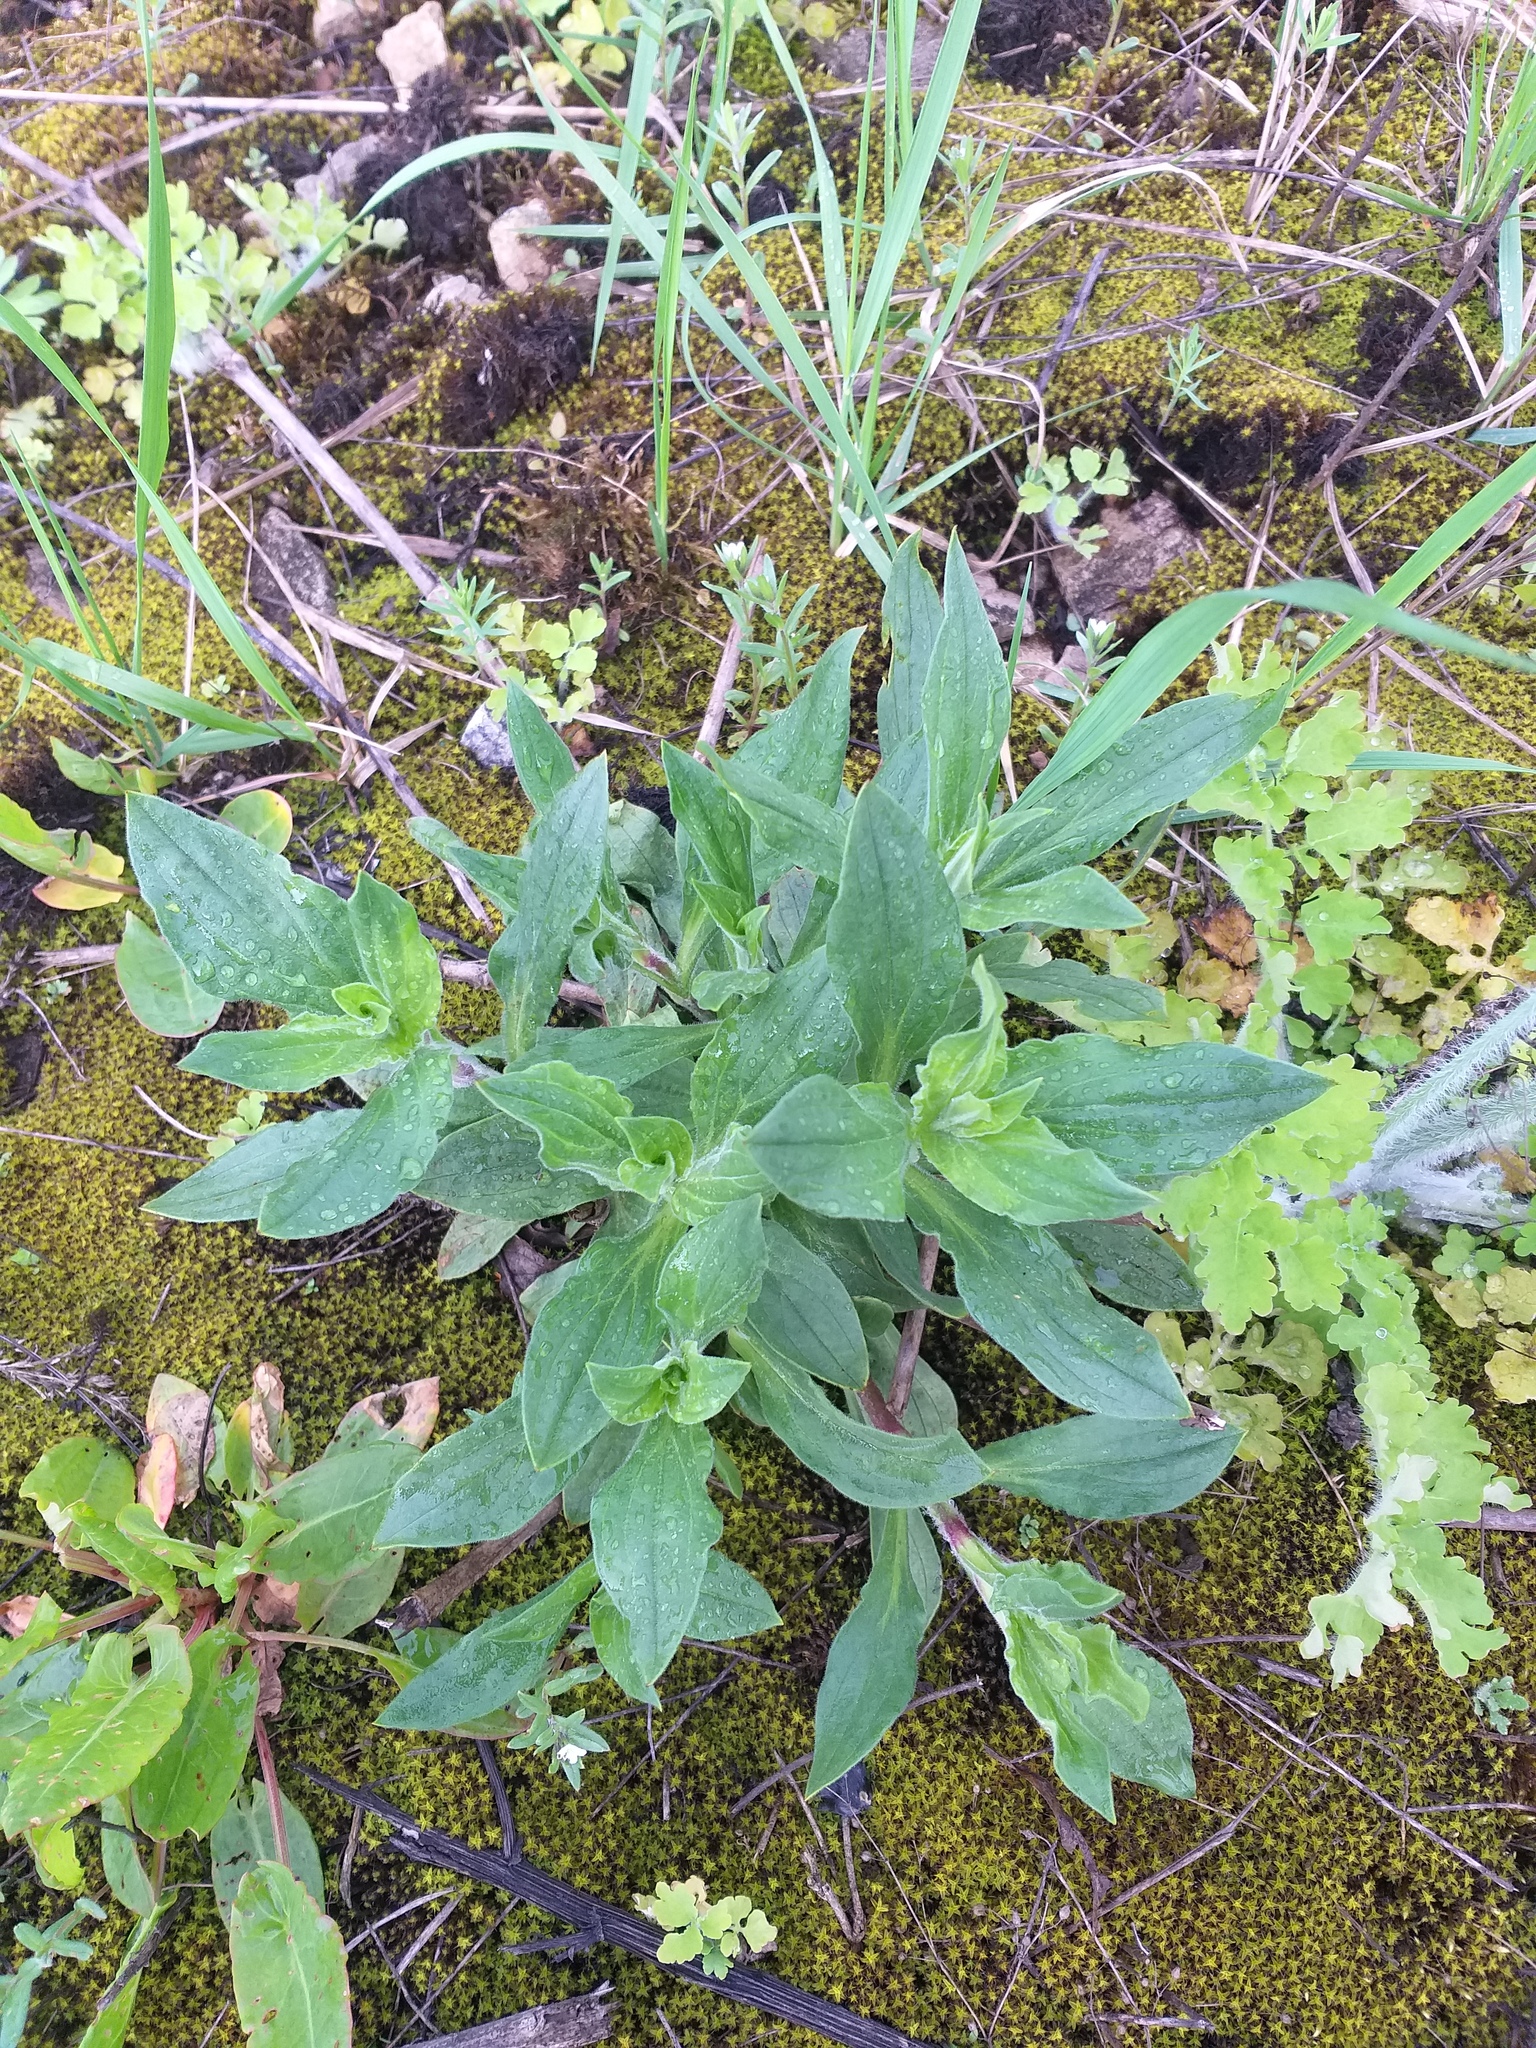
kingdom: Plantae
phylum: Tracheophyta
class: Magnoliopsida
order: Caryophyllales
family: Caryophyllaceae
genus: Silene
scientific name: Silene latifolia
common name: White campion
